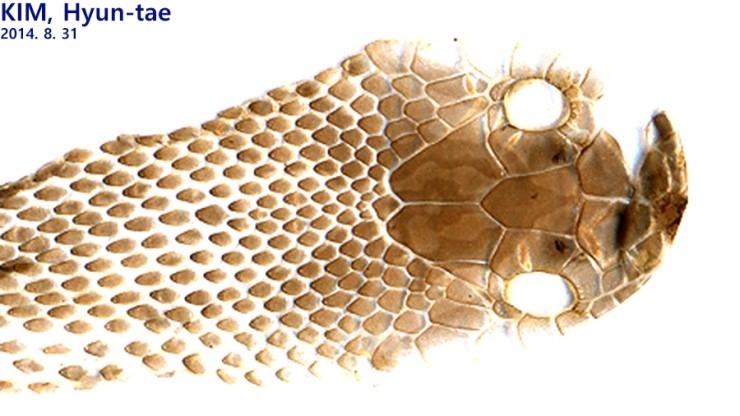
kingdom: Animalia
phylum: Chordata
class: Squamata
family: Colubridae
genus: Elaphe
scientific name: Elaphe dione
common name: Dione ratsnake
